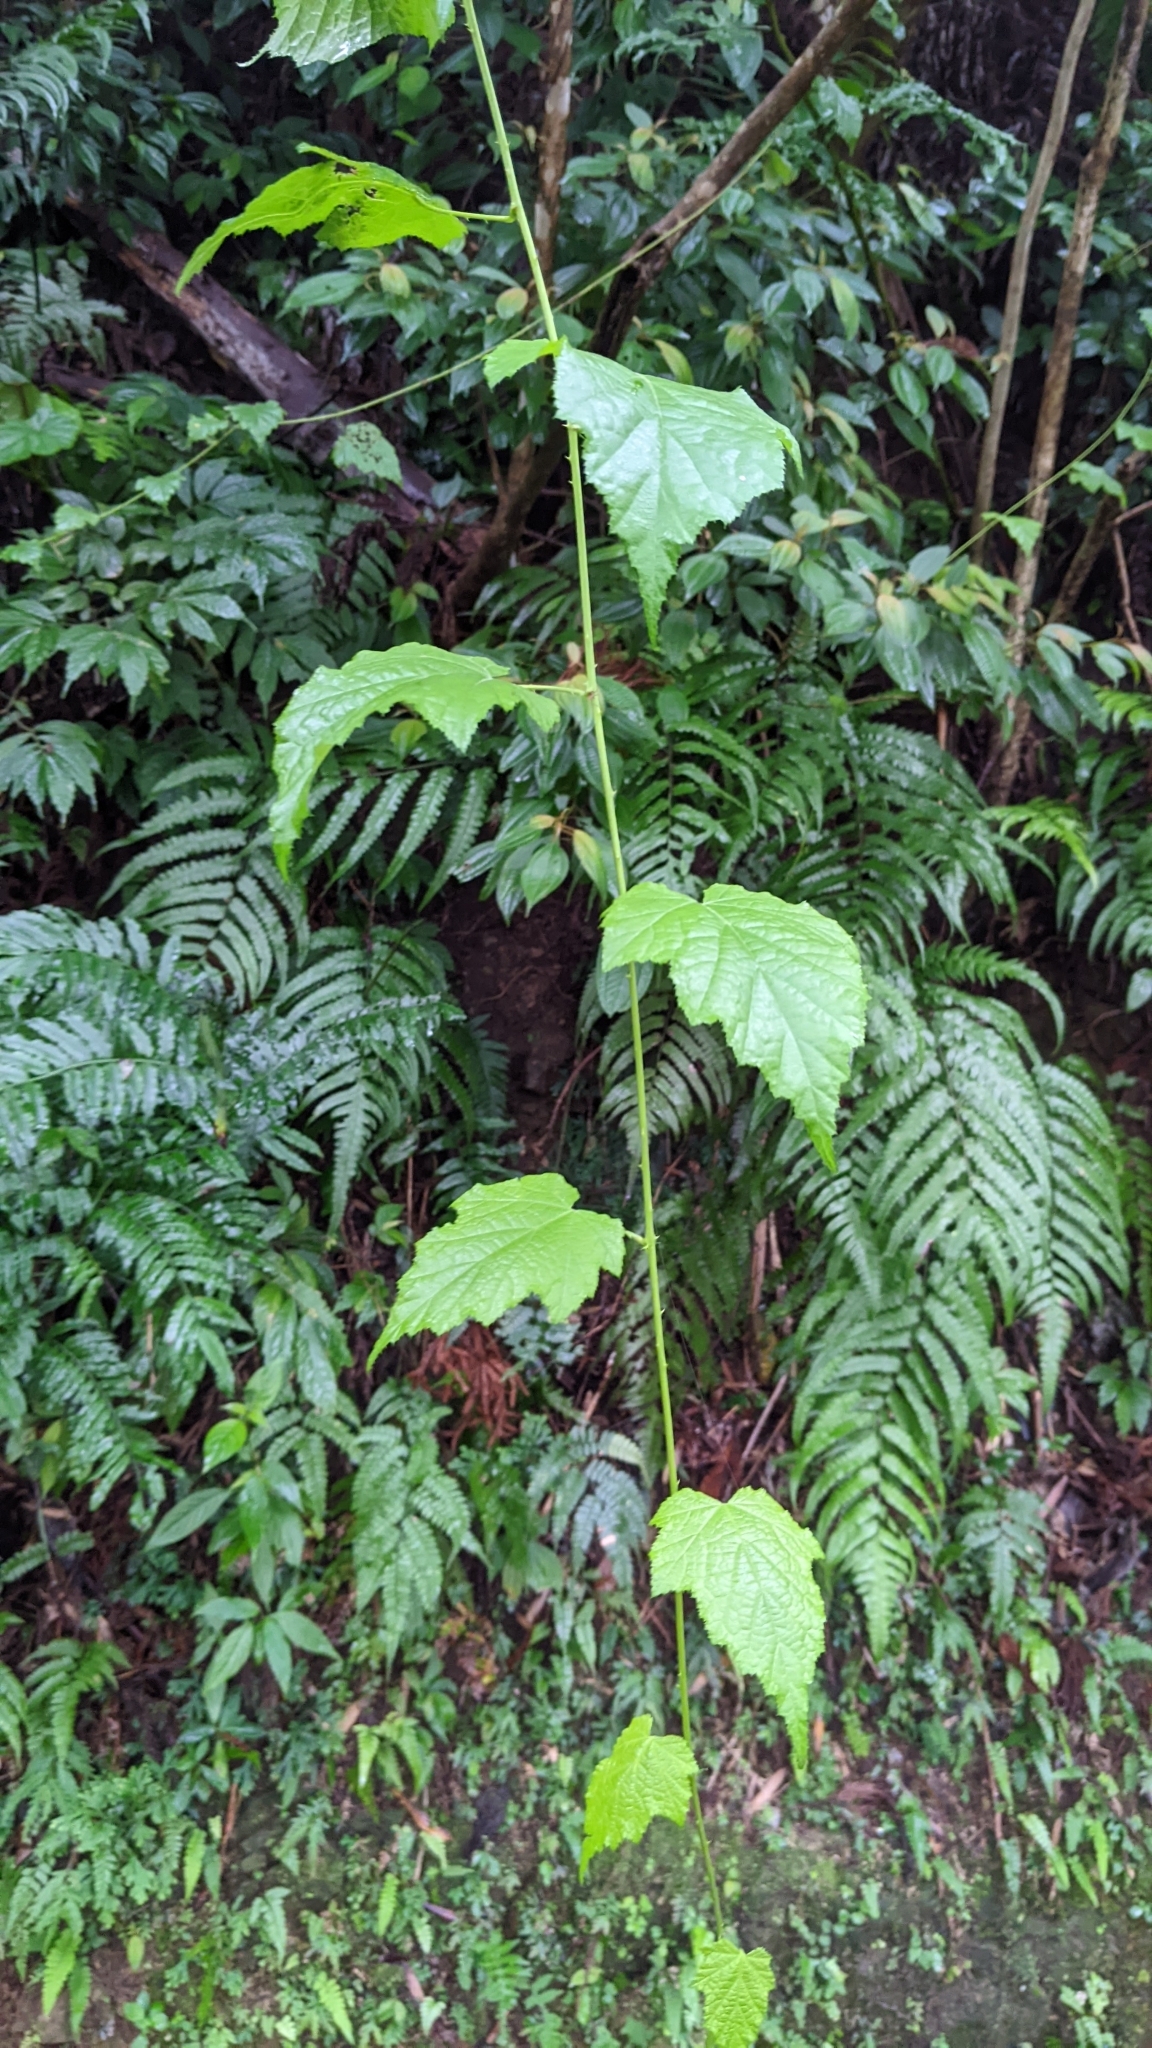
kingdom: Plantae
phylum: Tracheophyta
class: Magnoliopsida
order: Rosales
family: Rosaceae
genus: Rubus
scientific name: Rubus lambertianus
